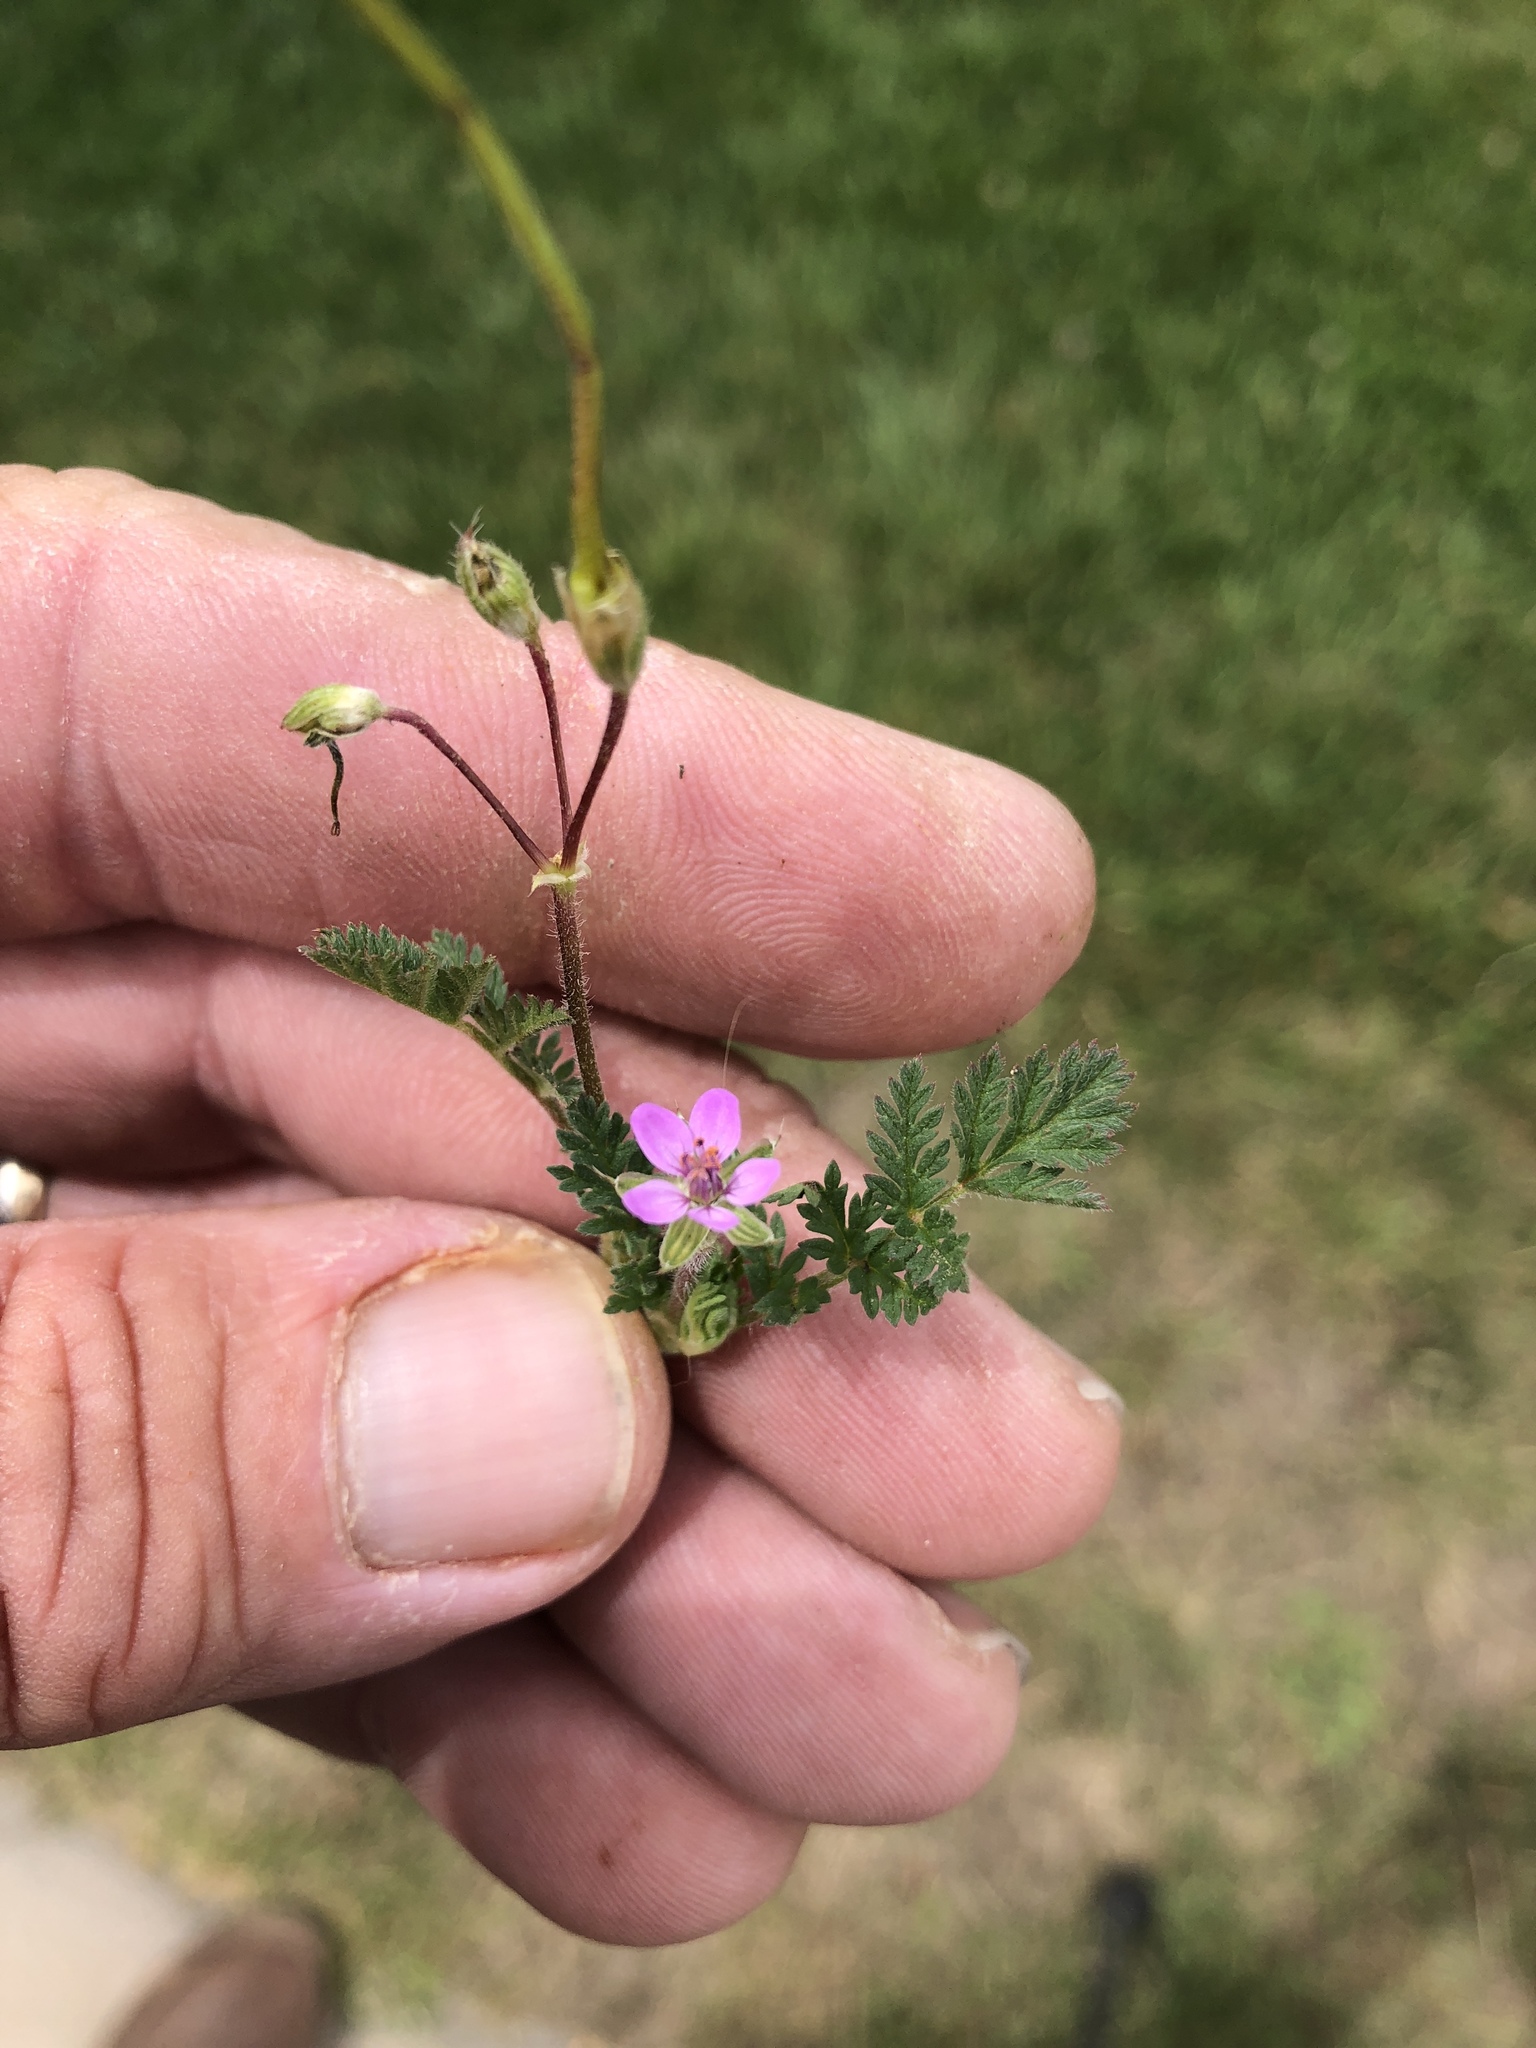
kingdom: Plantae
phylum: Tracheophyta
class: Magnoliopsida
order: Geraniales
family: Geraniaceae
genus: Erodium
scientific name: Erodium cicutarium
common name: Common stork's-bill
